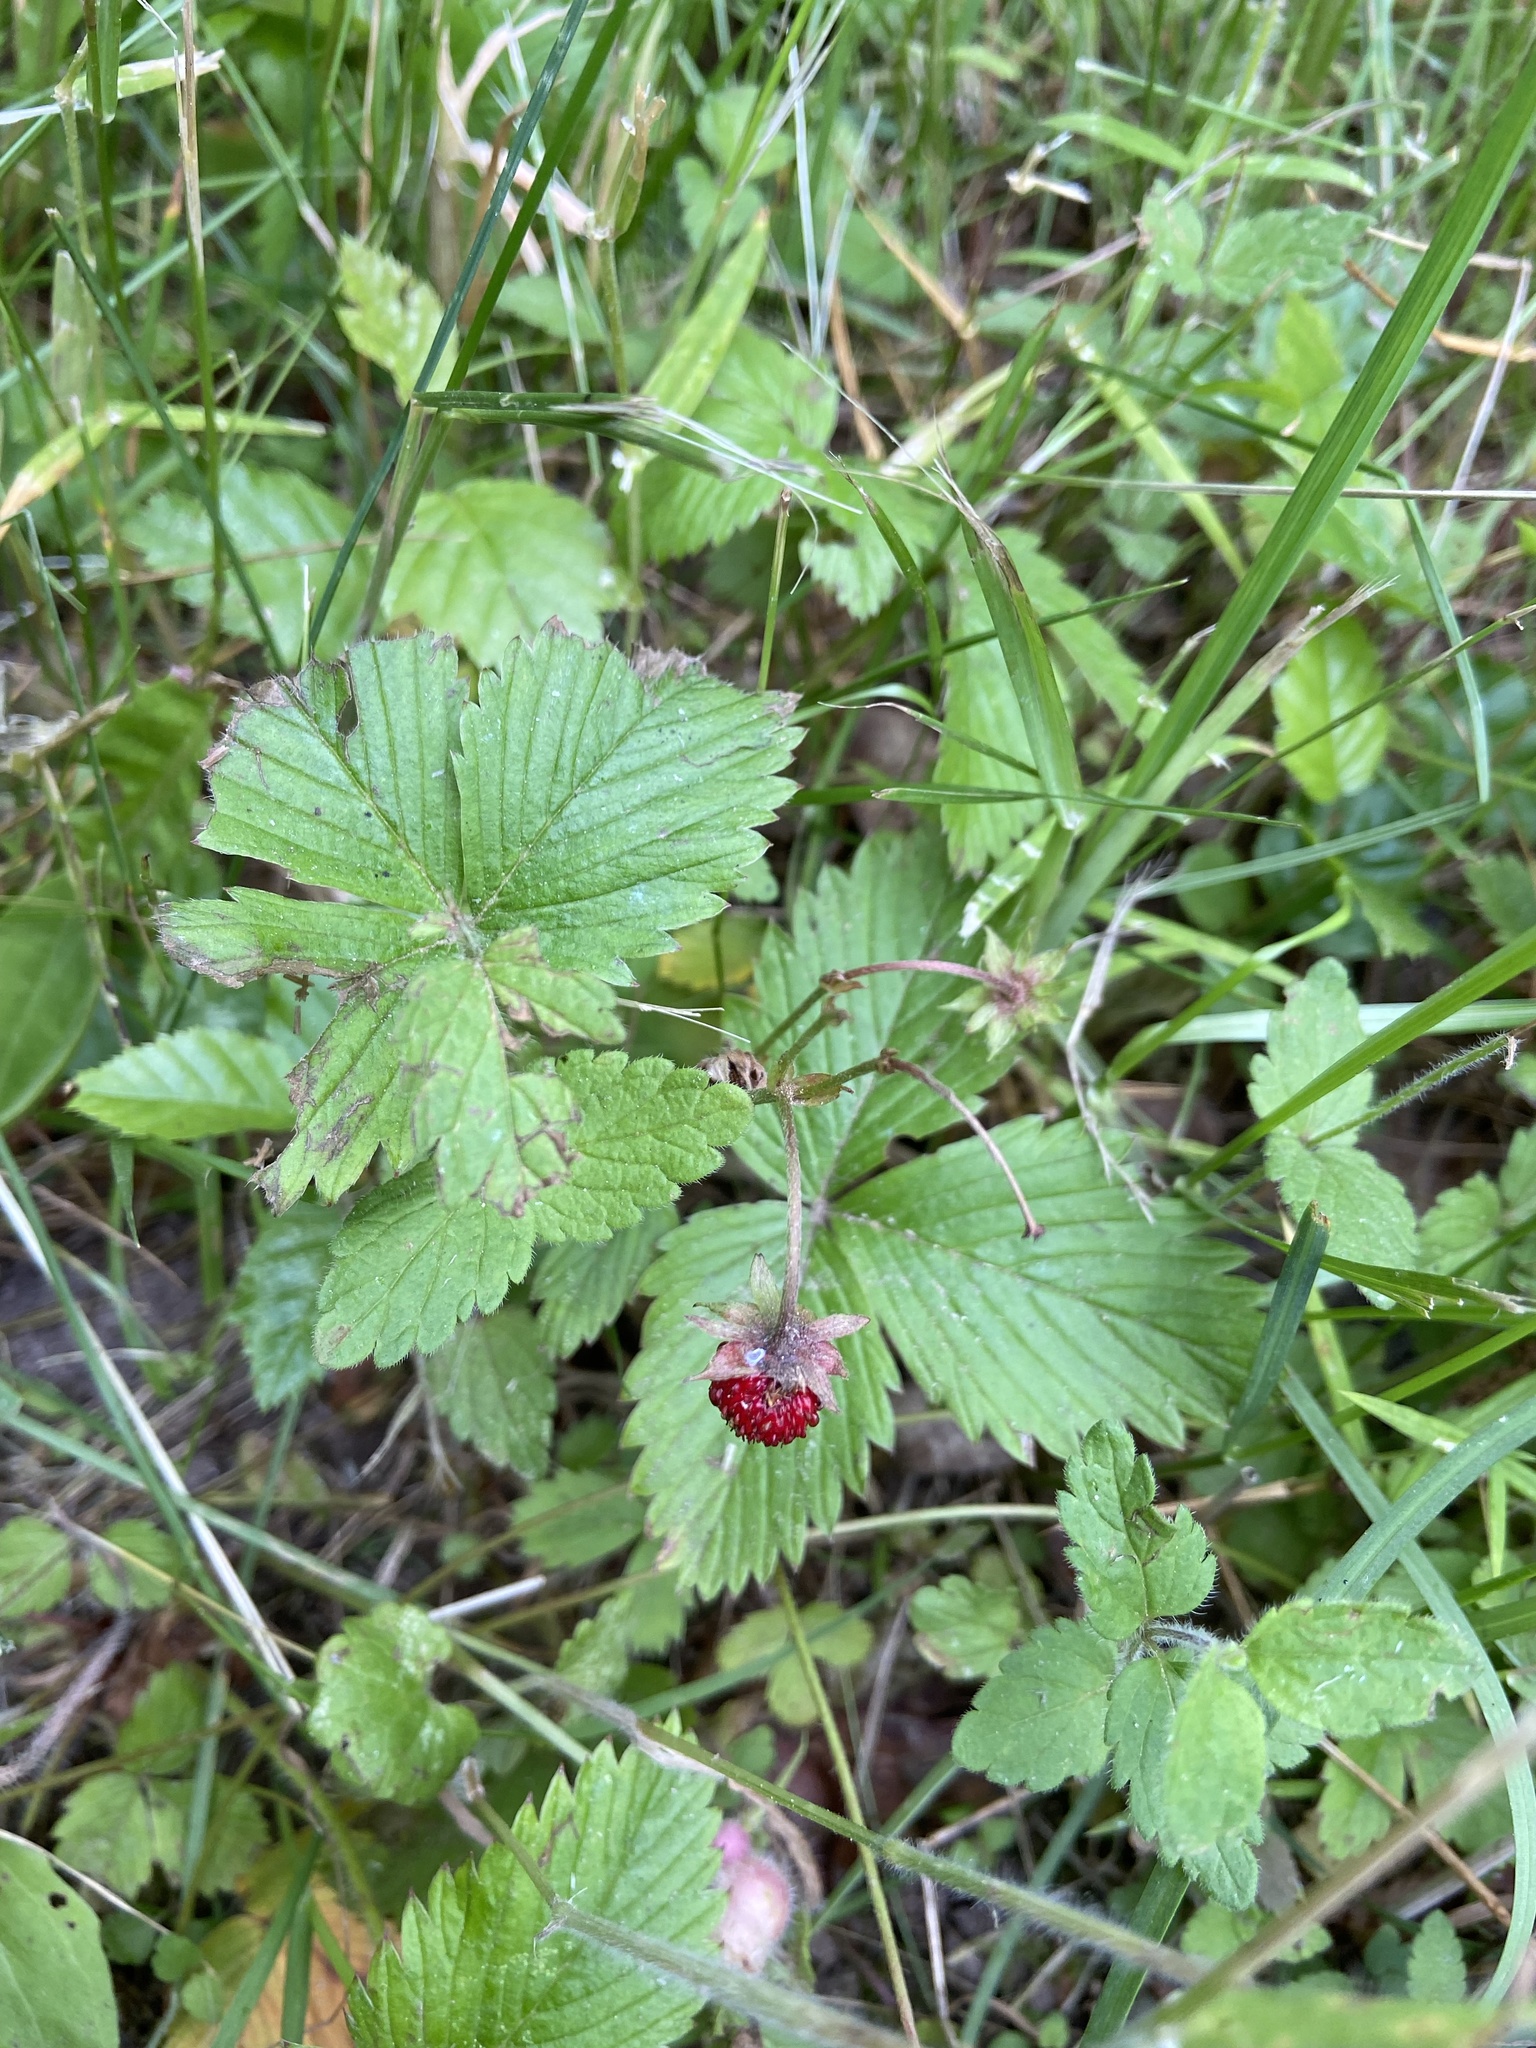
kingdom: Plantae
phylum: Tracheophyta
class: Magnoliopsida
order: Rosales
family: Rosaceae
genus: Fragaria
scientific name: Fragaria vesca
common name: Wild strawberry
